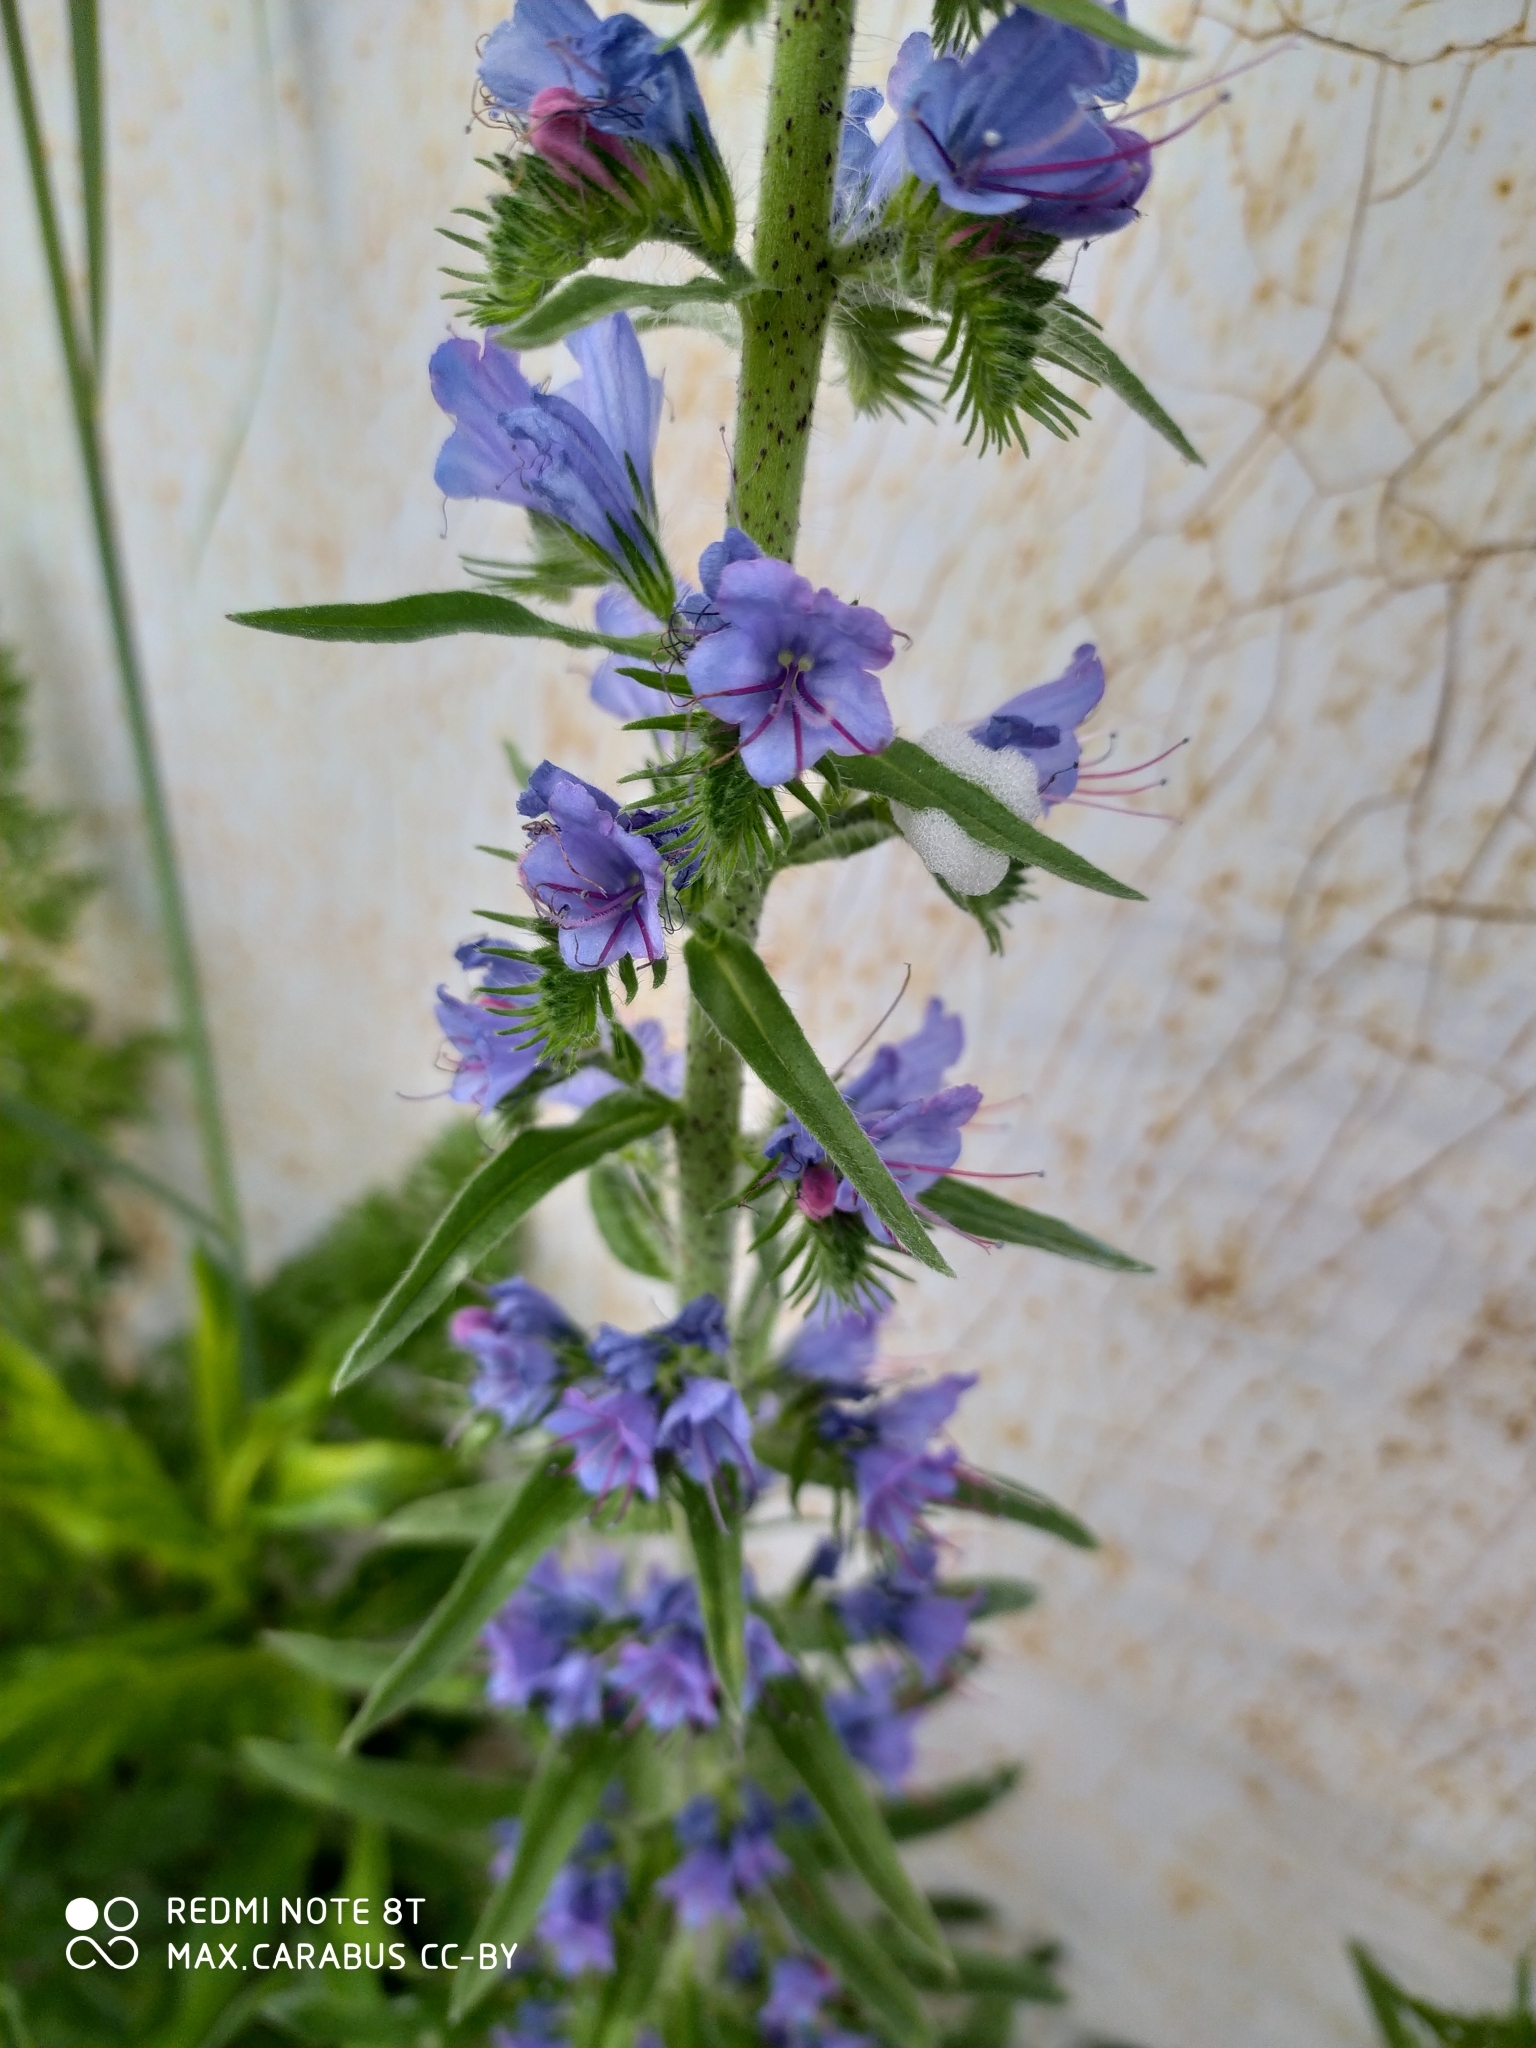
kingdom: Plantae
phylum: Tracheophyta
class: Magnoliopsida
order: Boraginales
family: Boraginaceae
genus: Echium
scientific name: Echium vulgare
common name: Common viper's bugloss
